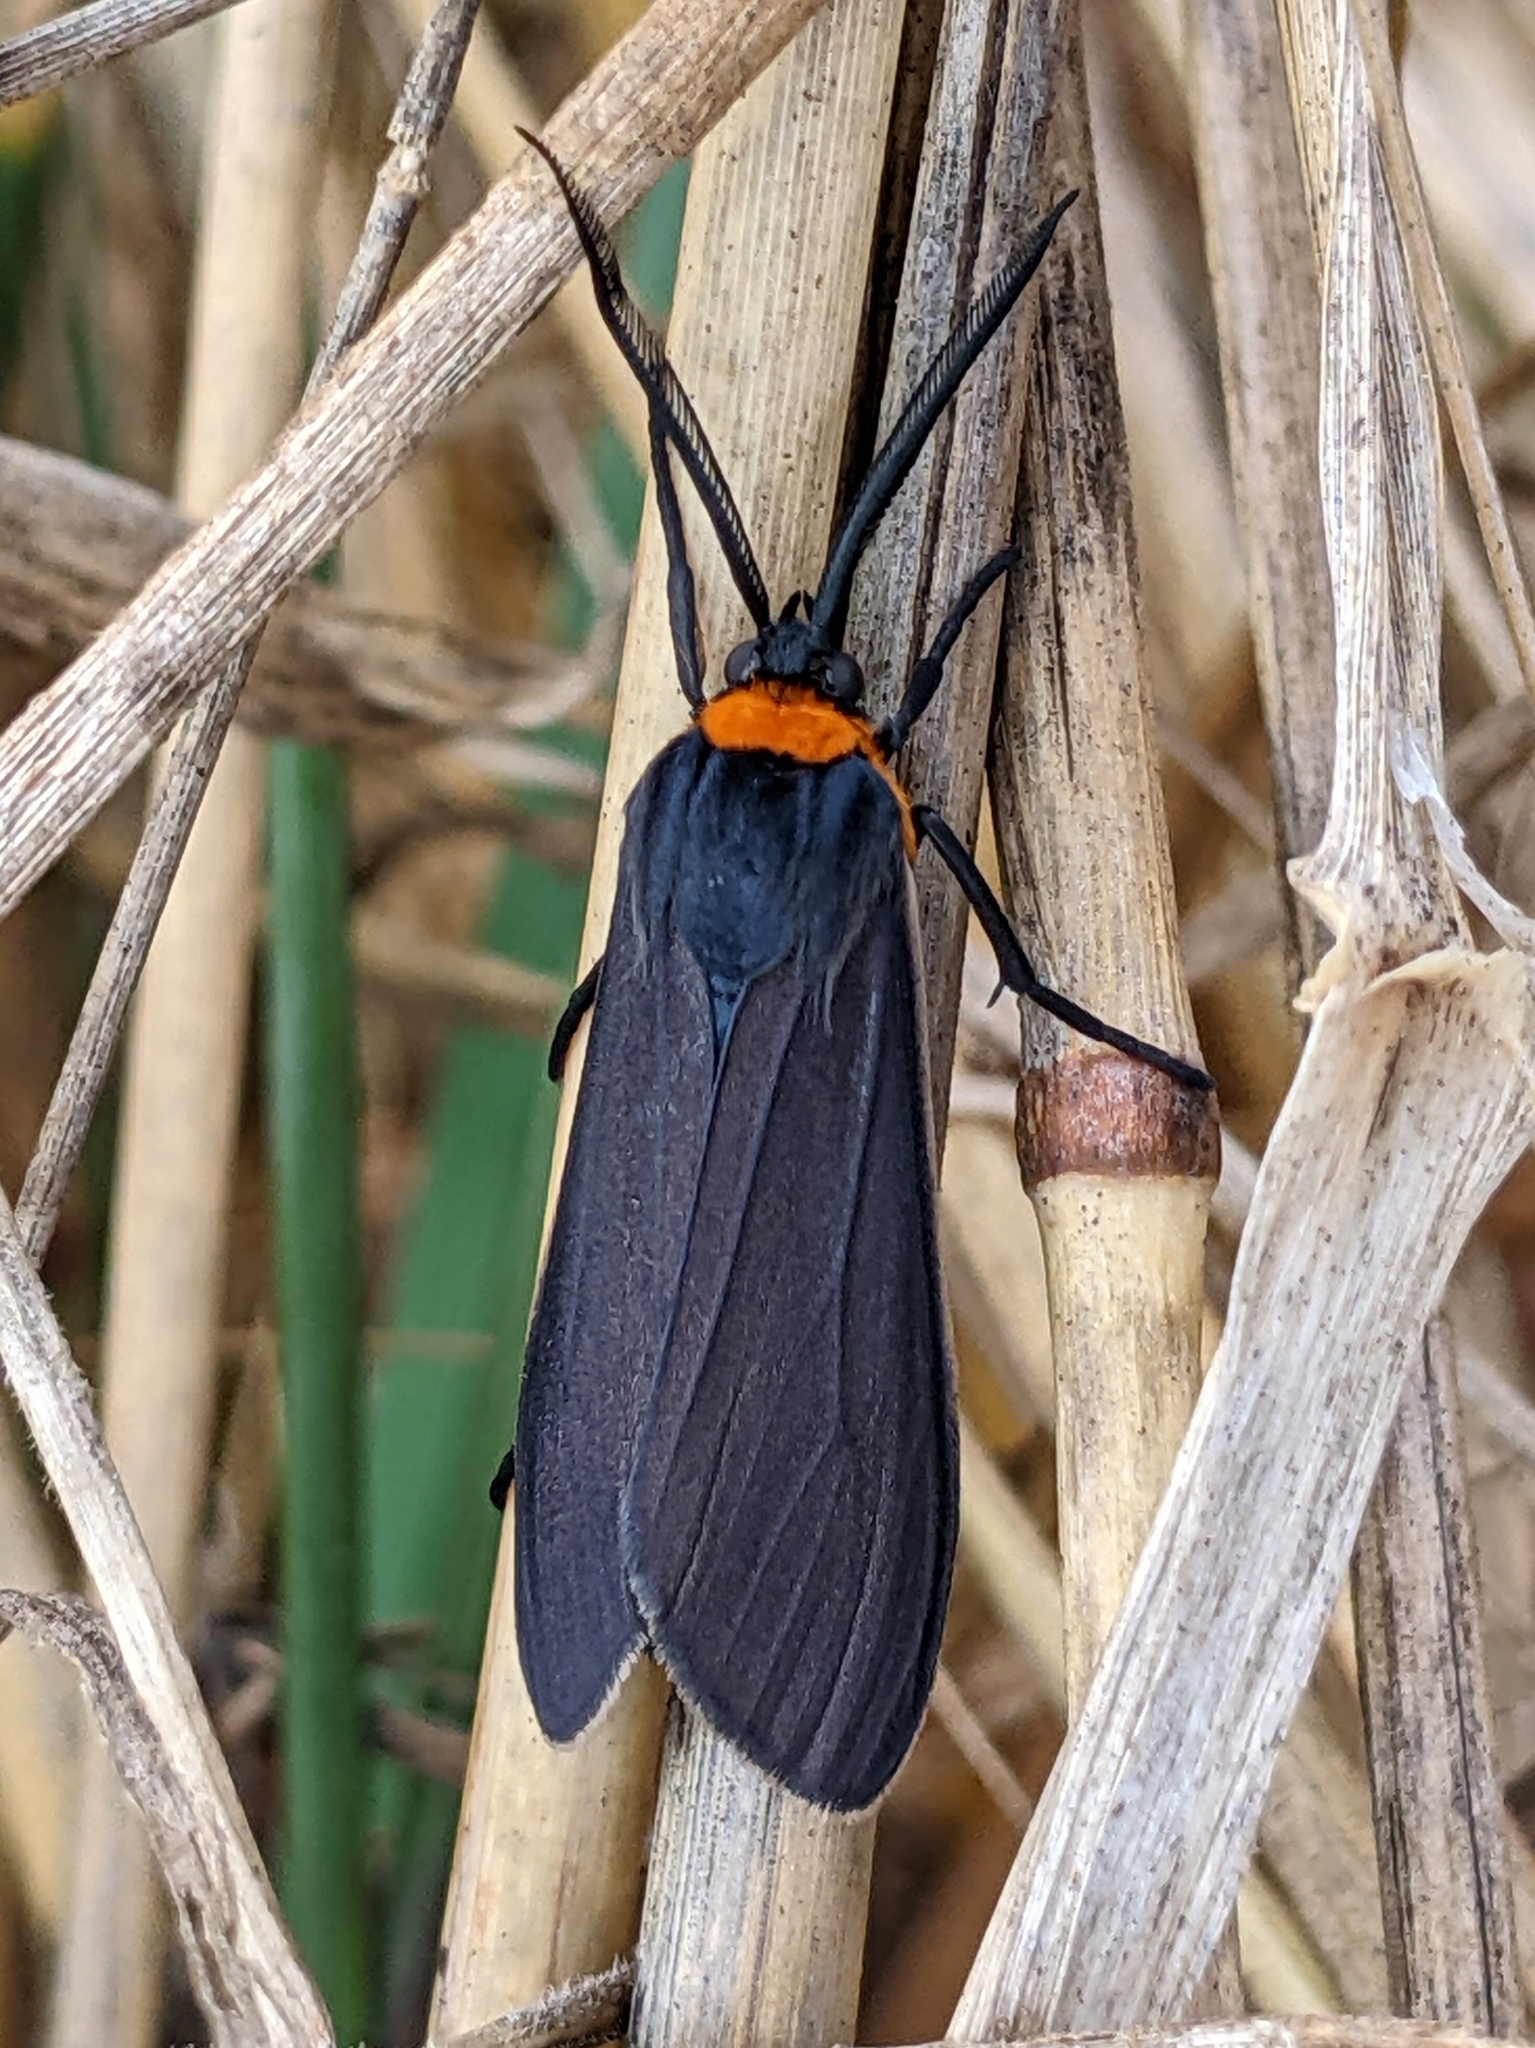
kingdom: Animalia
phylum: Arthropoda
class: Insecta
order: Lepidoptera
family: Erebidae
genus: Cisseps
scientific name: Cisseps fulvicollis
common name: Yellow-collared scape moth
